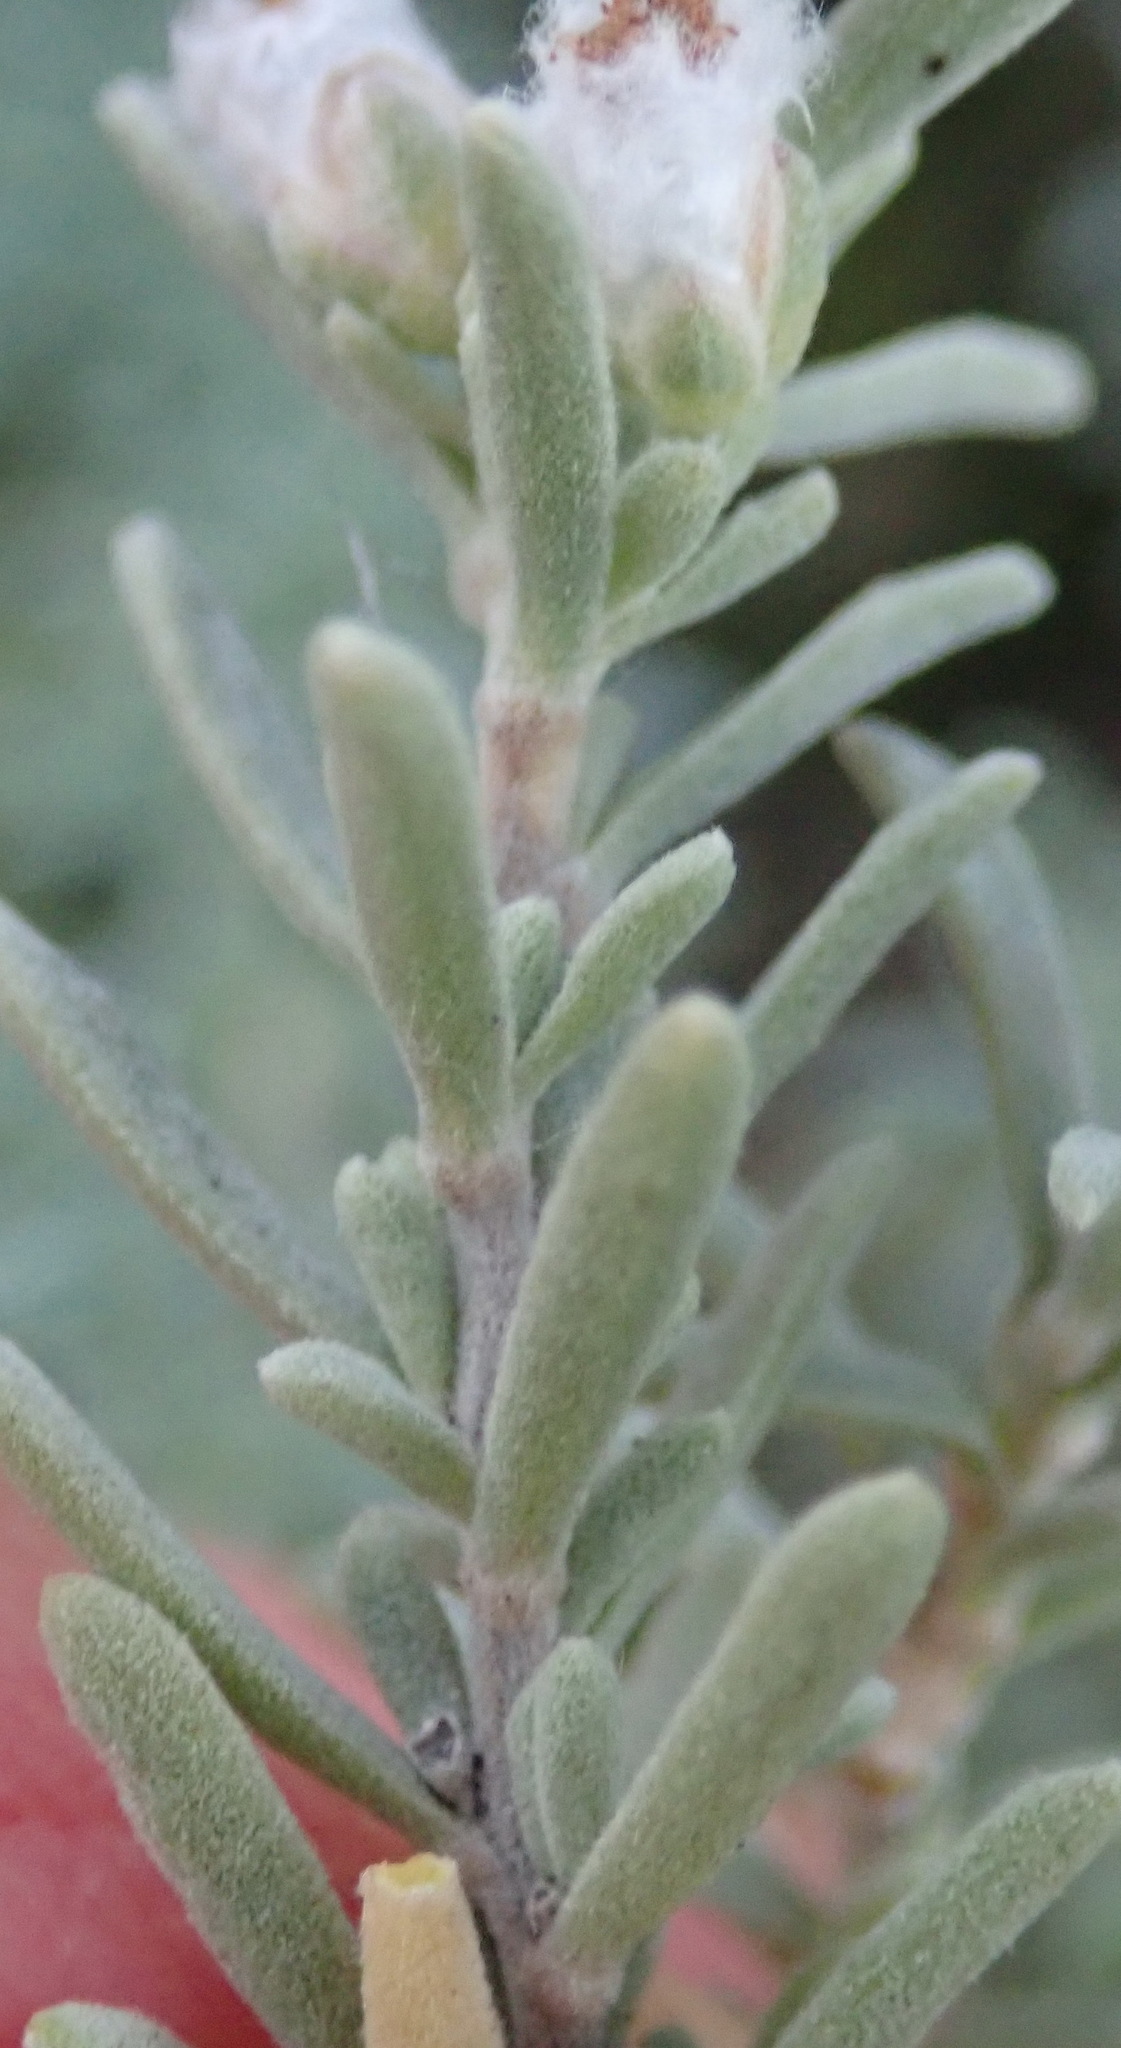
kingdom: Plantae
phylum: Tracheophyta
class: Magnoliopsida
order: Asterales
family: Asteraceae
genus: Eriocephalus
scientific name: Eriocephalus racemosus
